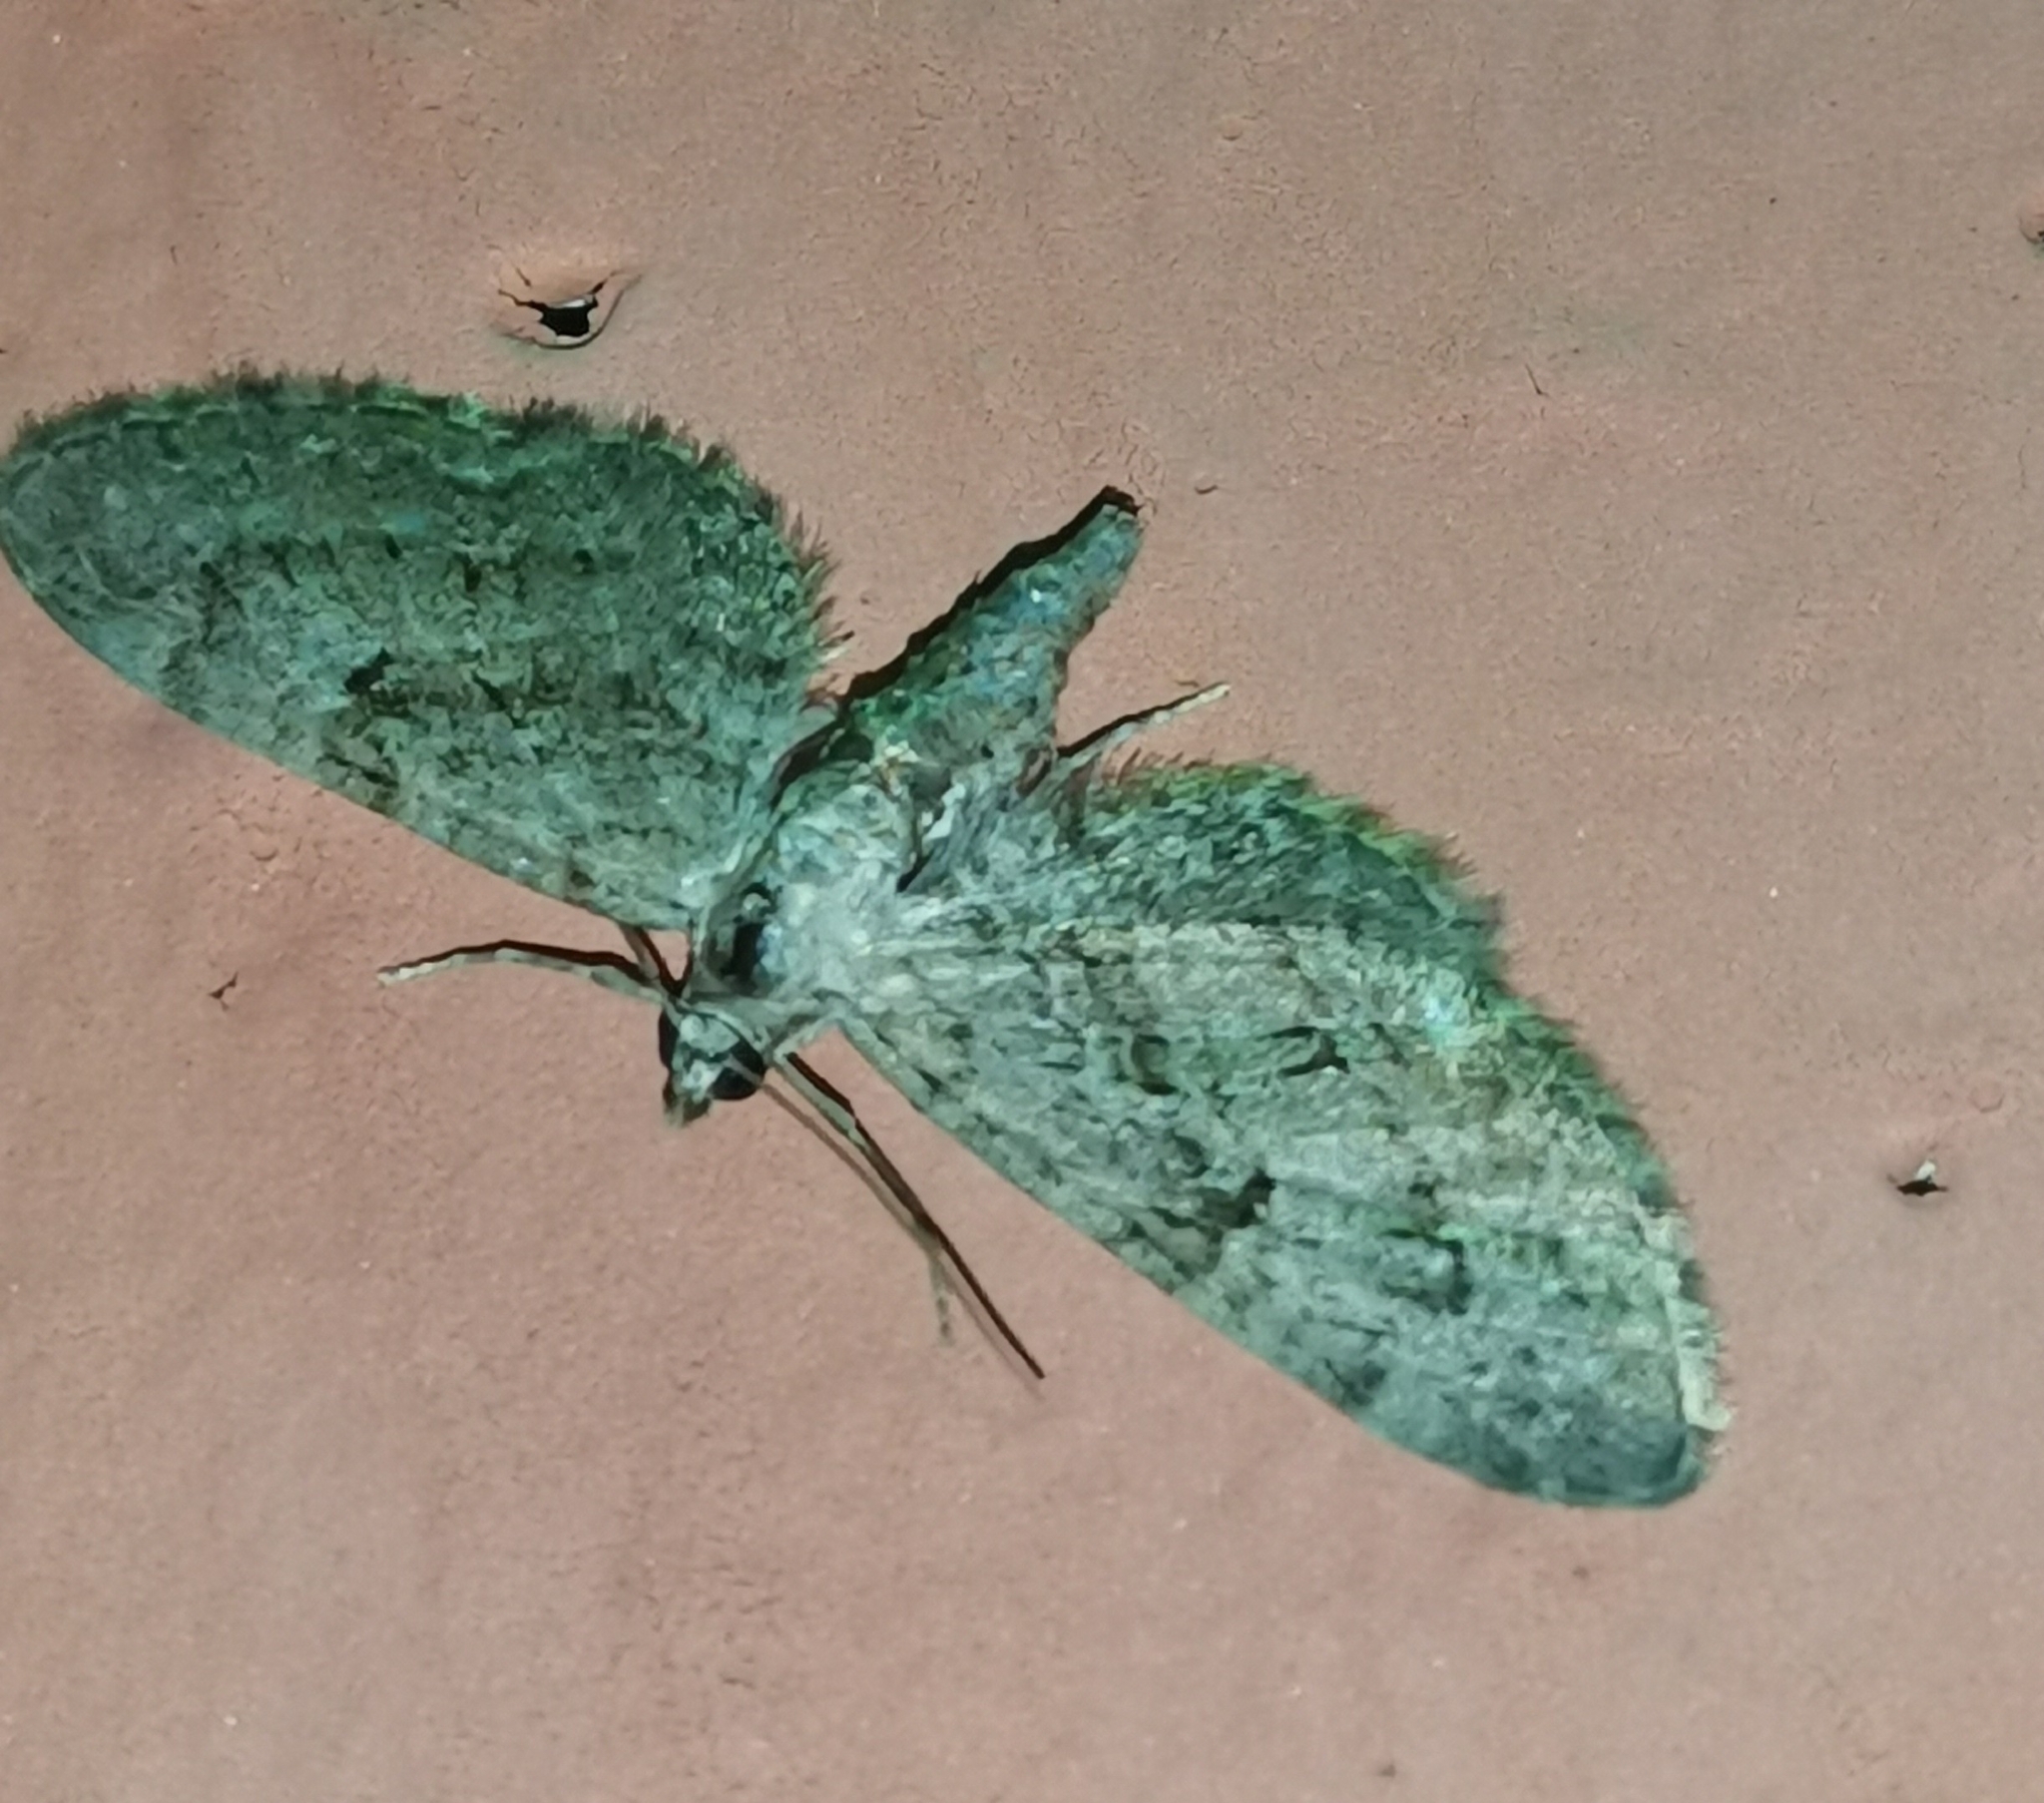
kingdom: Animalia
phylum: Arthropoda
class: Insecta
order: Lepidoptera
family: Geometridae
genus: Eupithecia
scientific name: Eupithecia pusillata
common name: Juniper pug
